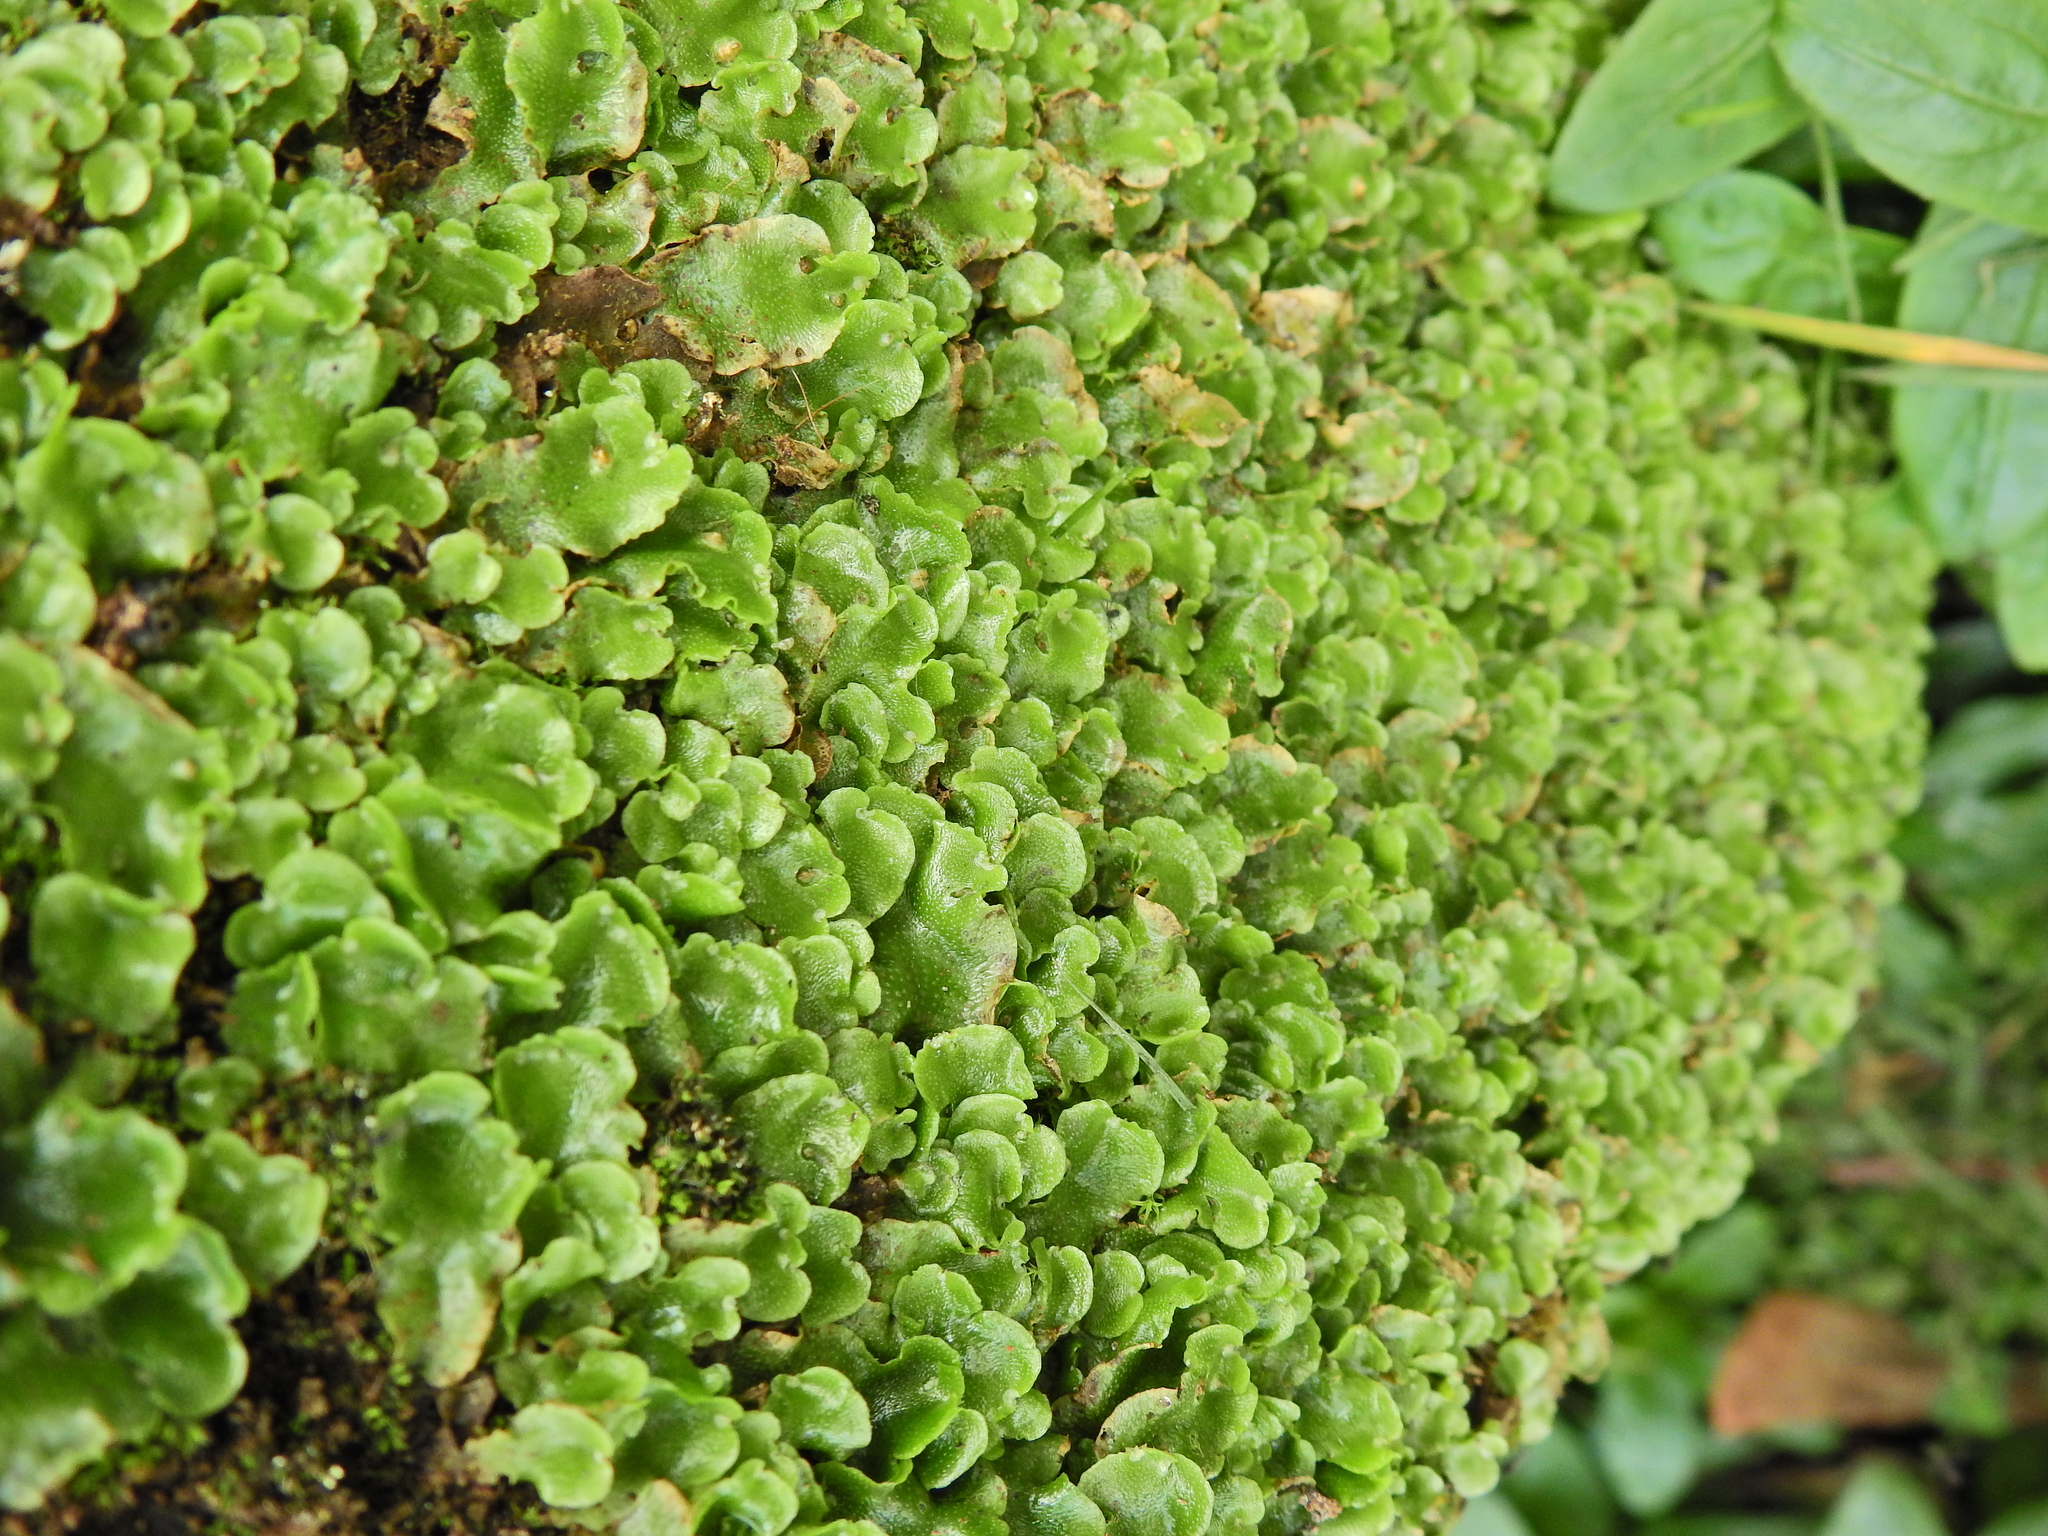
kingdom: Plantae
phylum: Marchantiophyta
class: Marchantiopsida
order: Lunulariales
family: Lunulariaceae
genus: Lunularia
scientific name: Lunularia cruciata
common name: Crescent-cup liverwort
